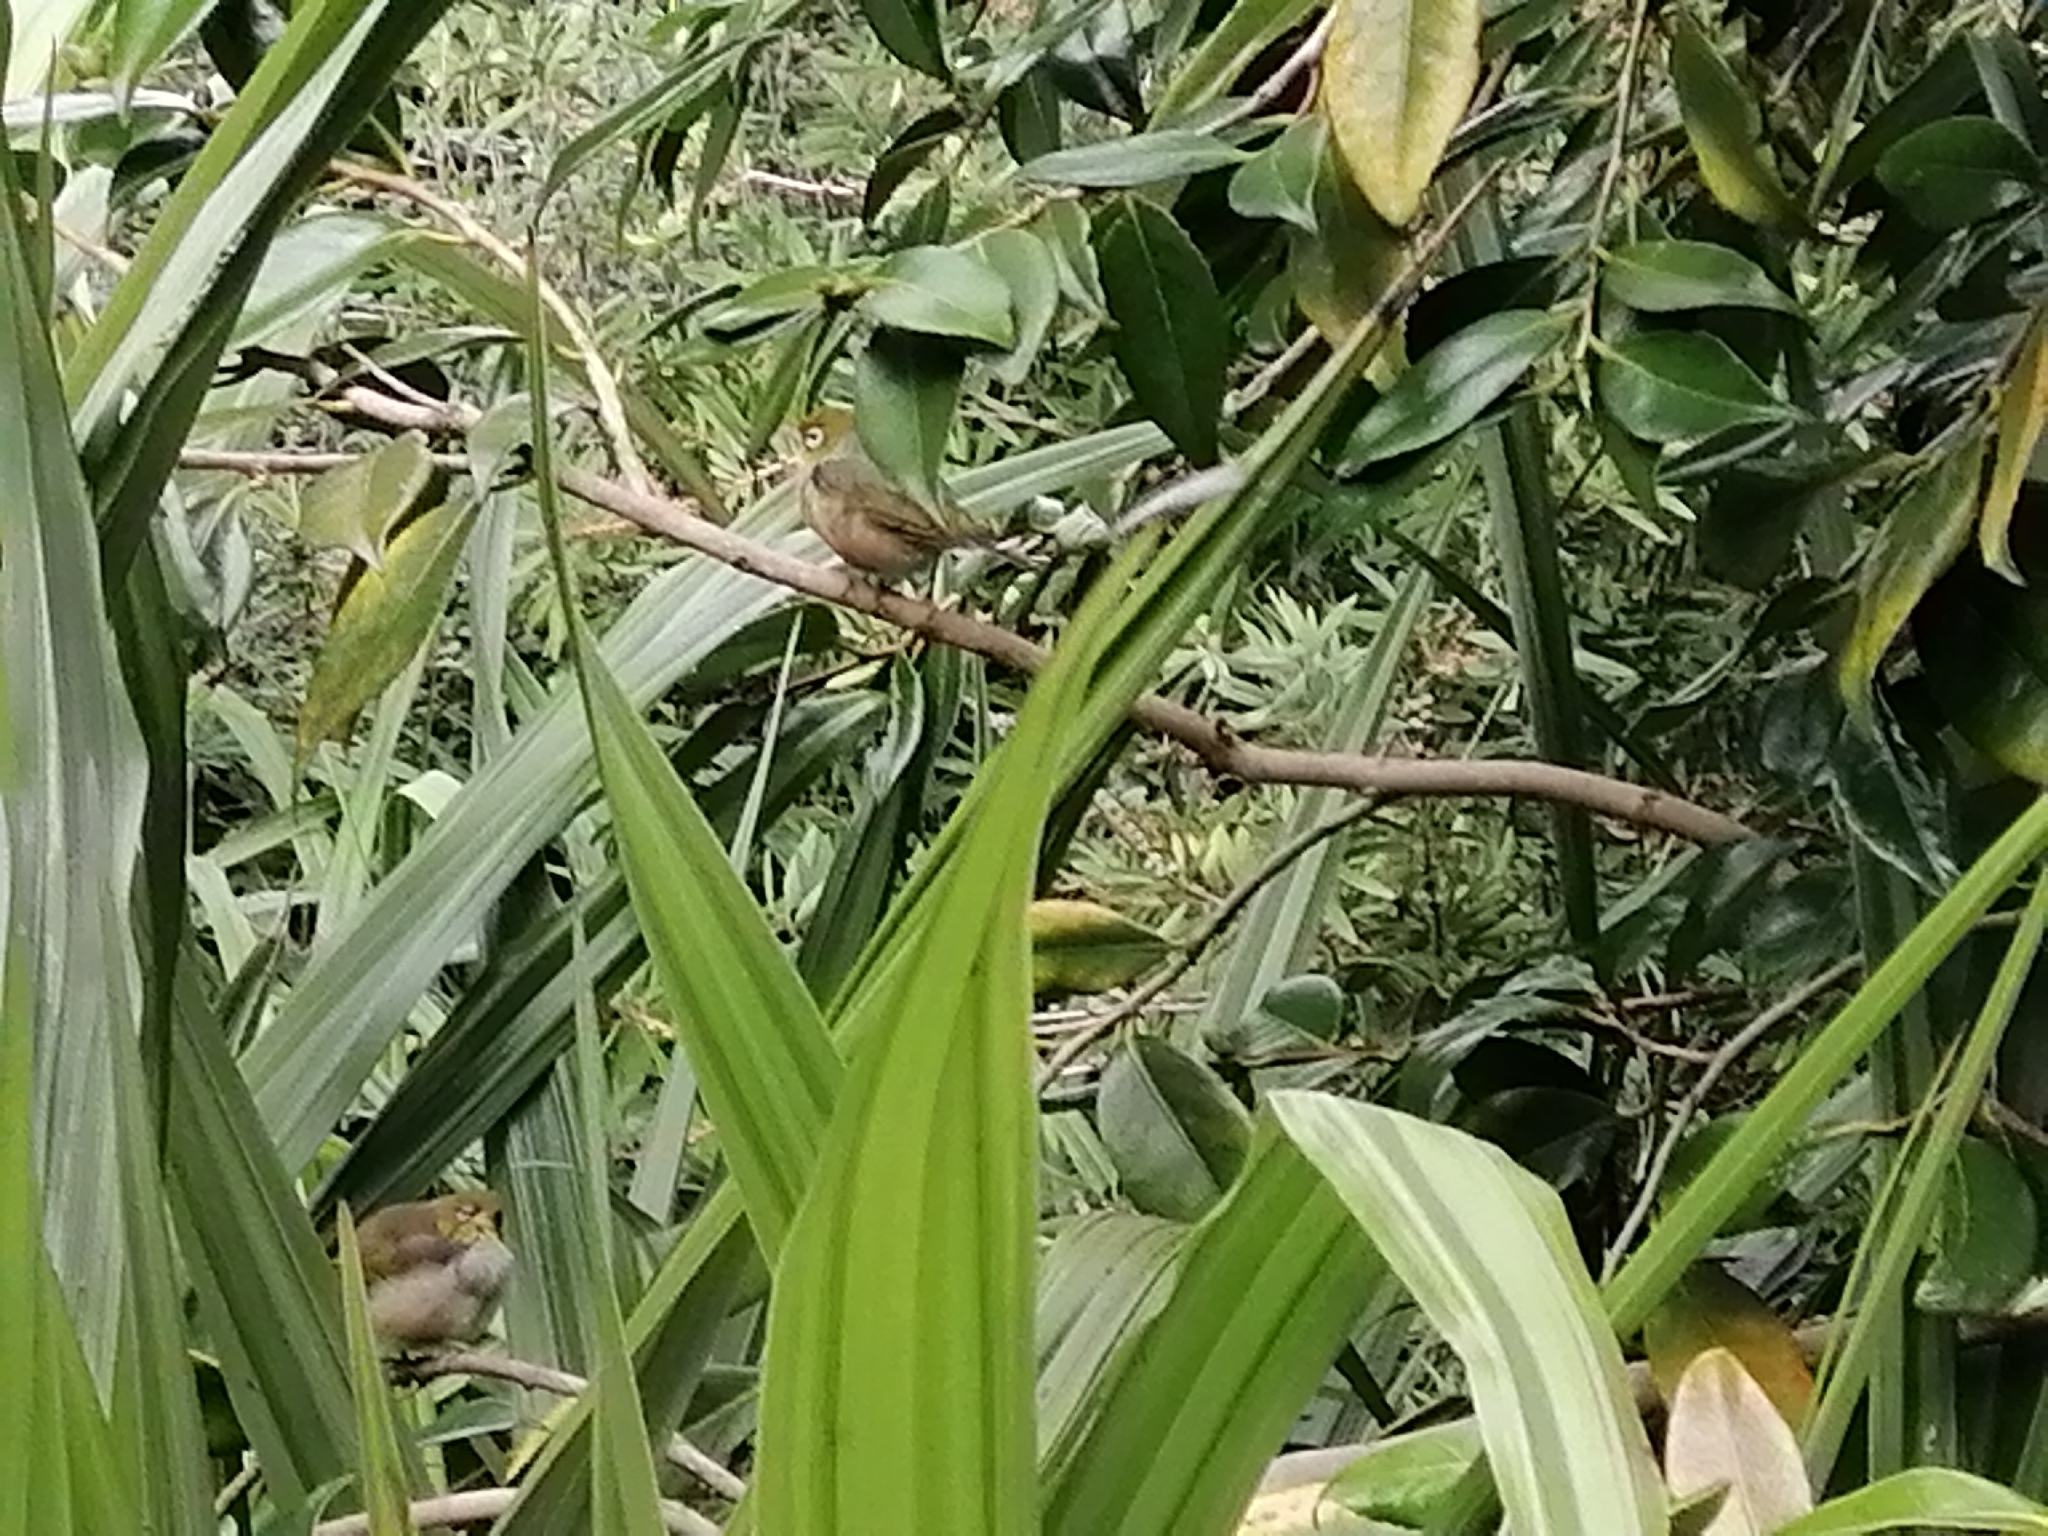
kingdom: Animalia
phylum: Chordata
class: Aves
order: Passeriformes
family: Zosteropidae
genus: Zosterops
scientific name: Zosterops lateralis
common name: Silvereye
